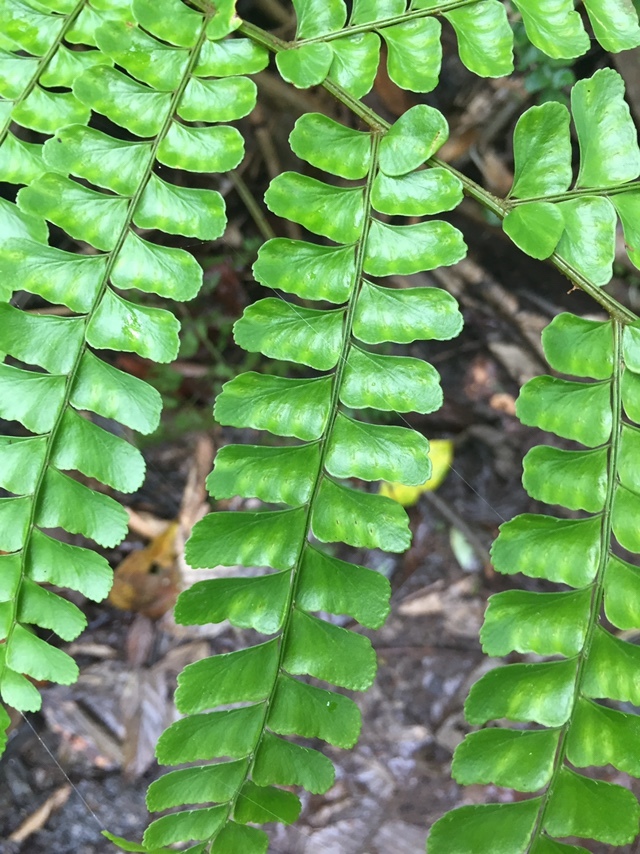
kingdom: Plantae
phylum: Tracheophyta
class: Polypodiopsida
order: Polypodiales
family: Didymochlaenaceae
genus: Didymochlaena
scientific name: Didymochlaena truncatula
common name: Mahogany fern
